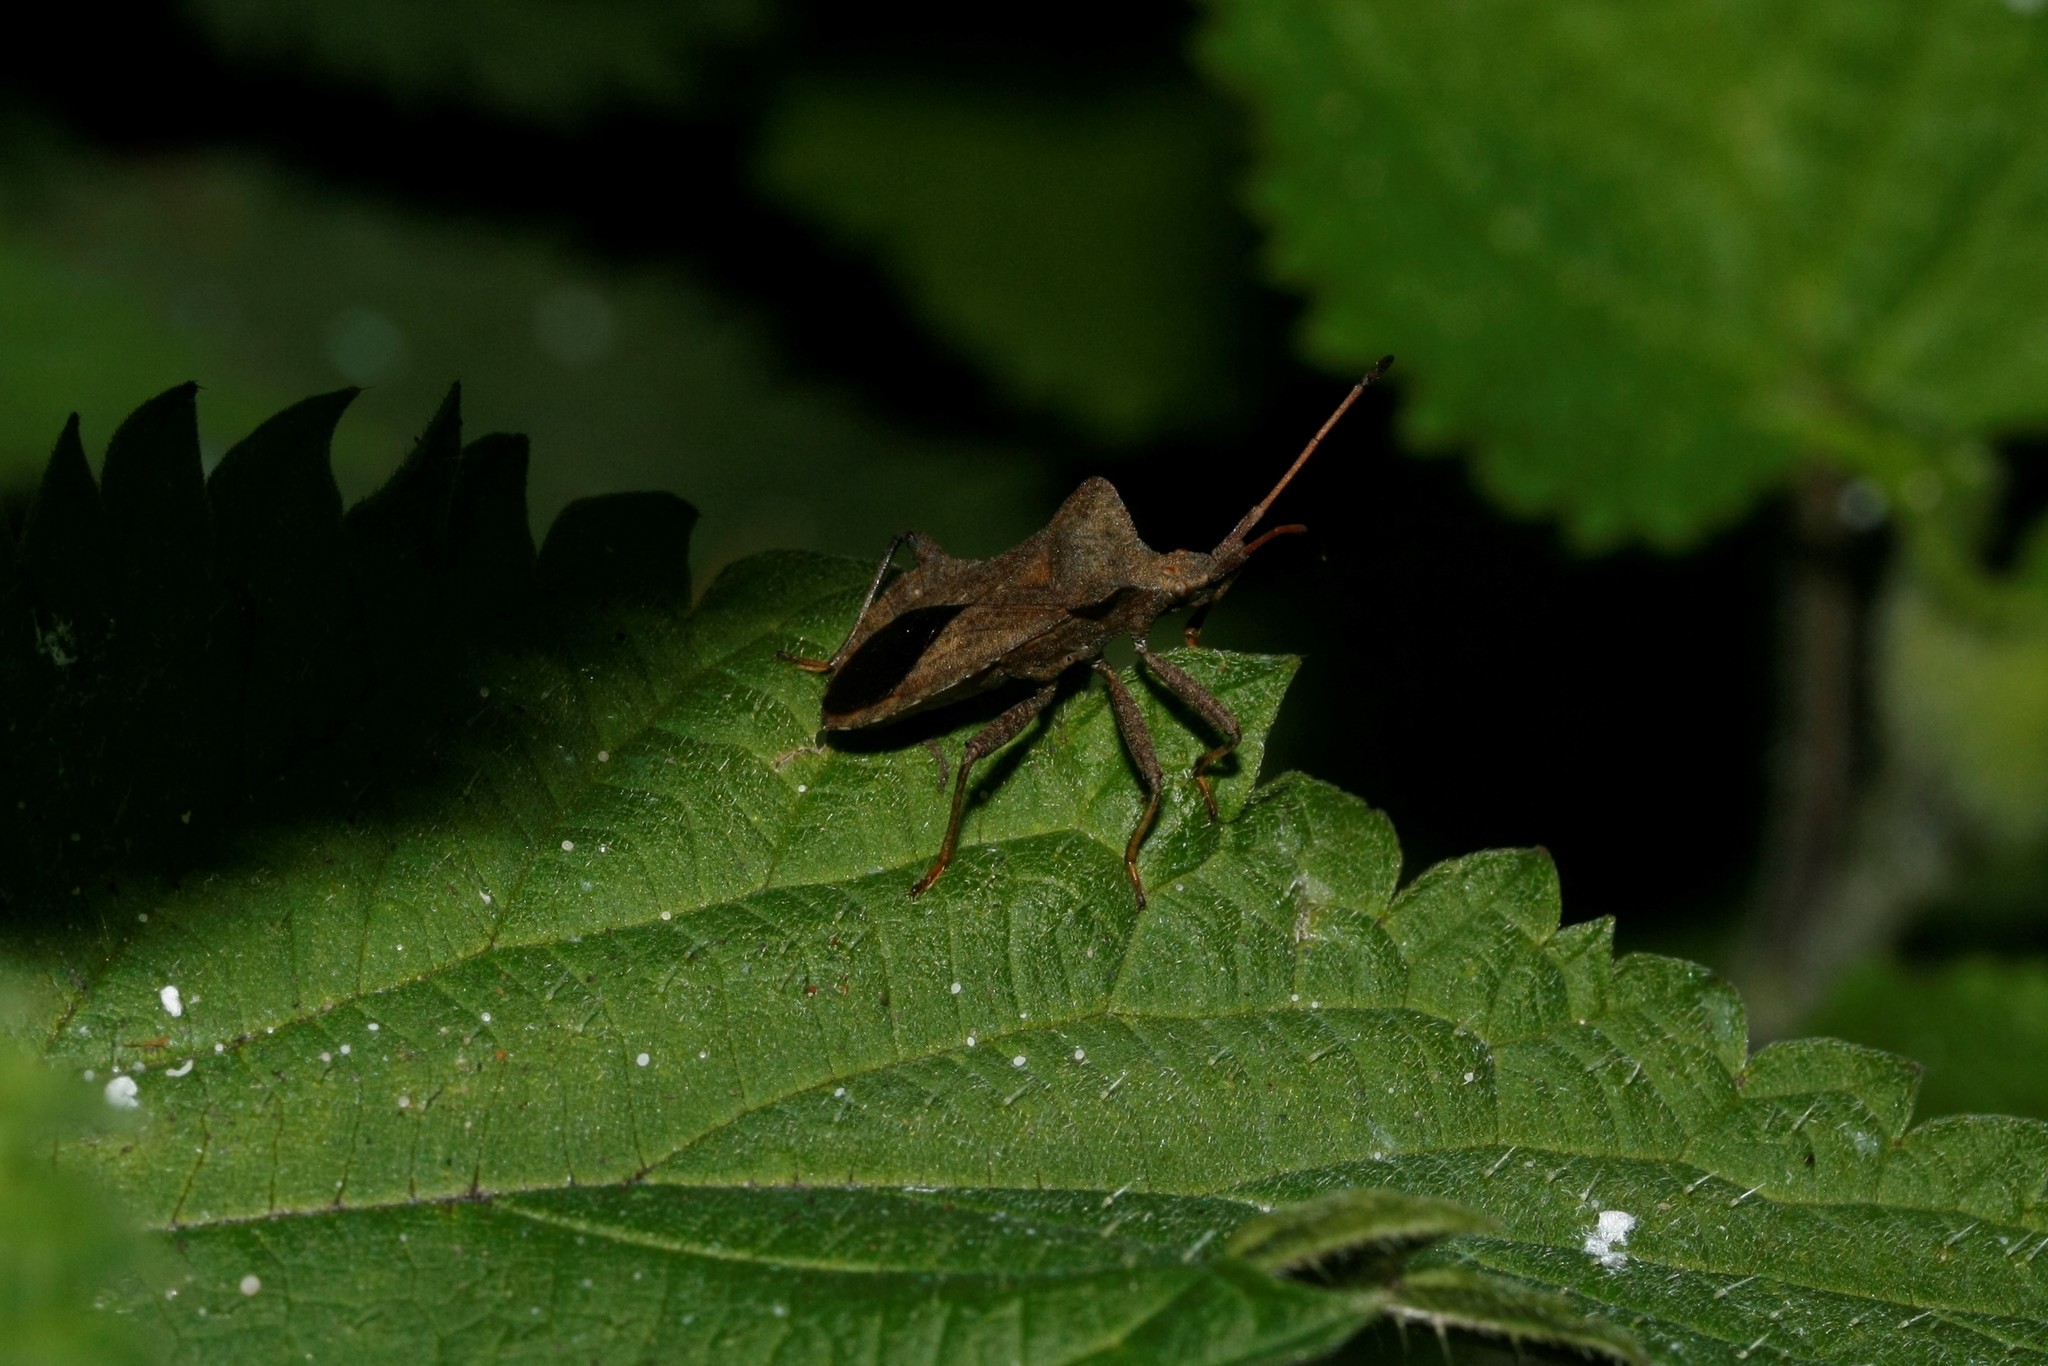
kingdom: Animalia
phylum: Arthropoda
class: Insecta
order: Hemiptera
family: Coreidae
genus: Coreus
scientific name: Coreus marginatus
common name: Dock bug
